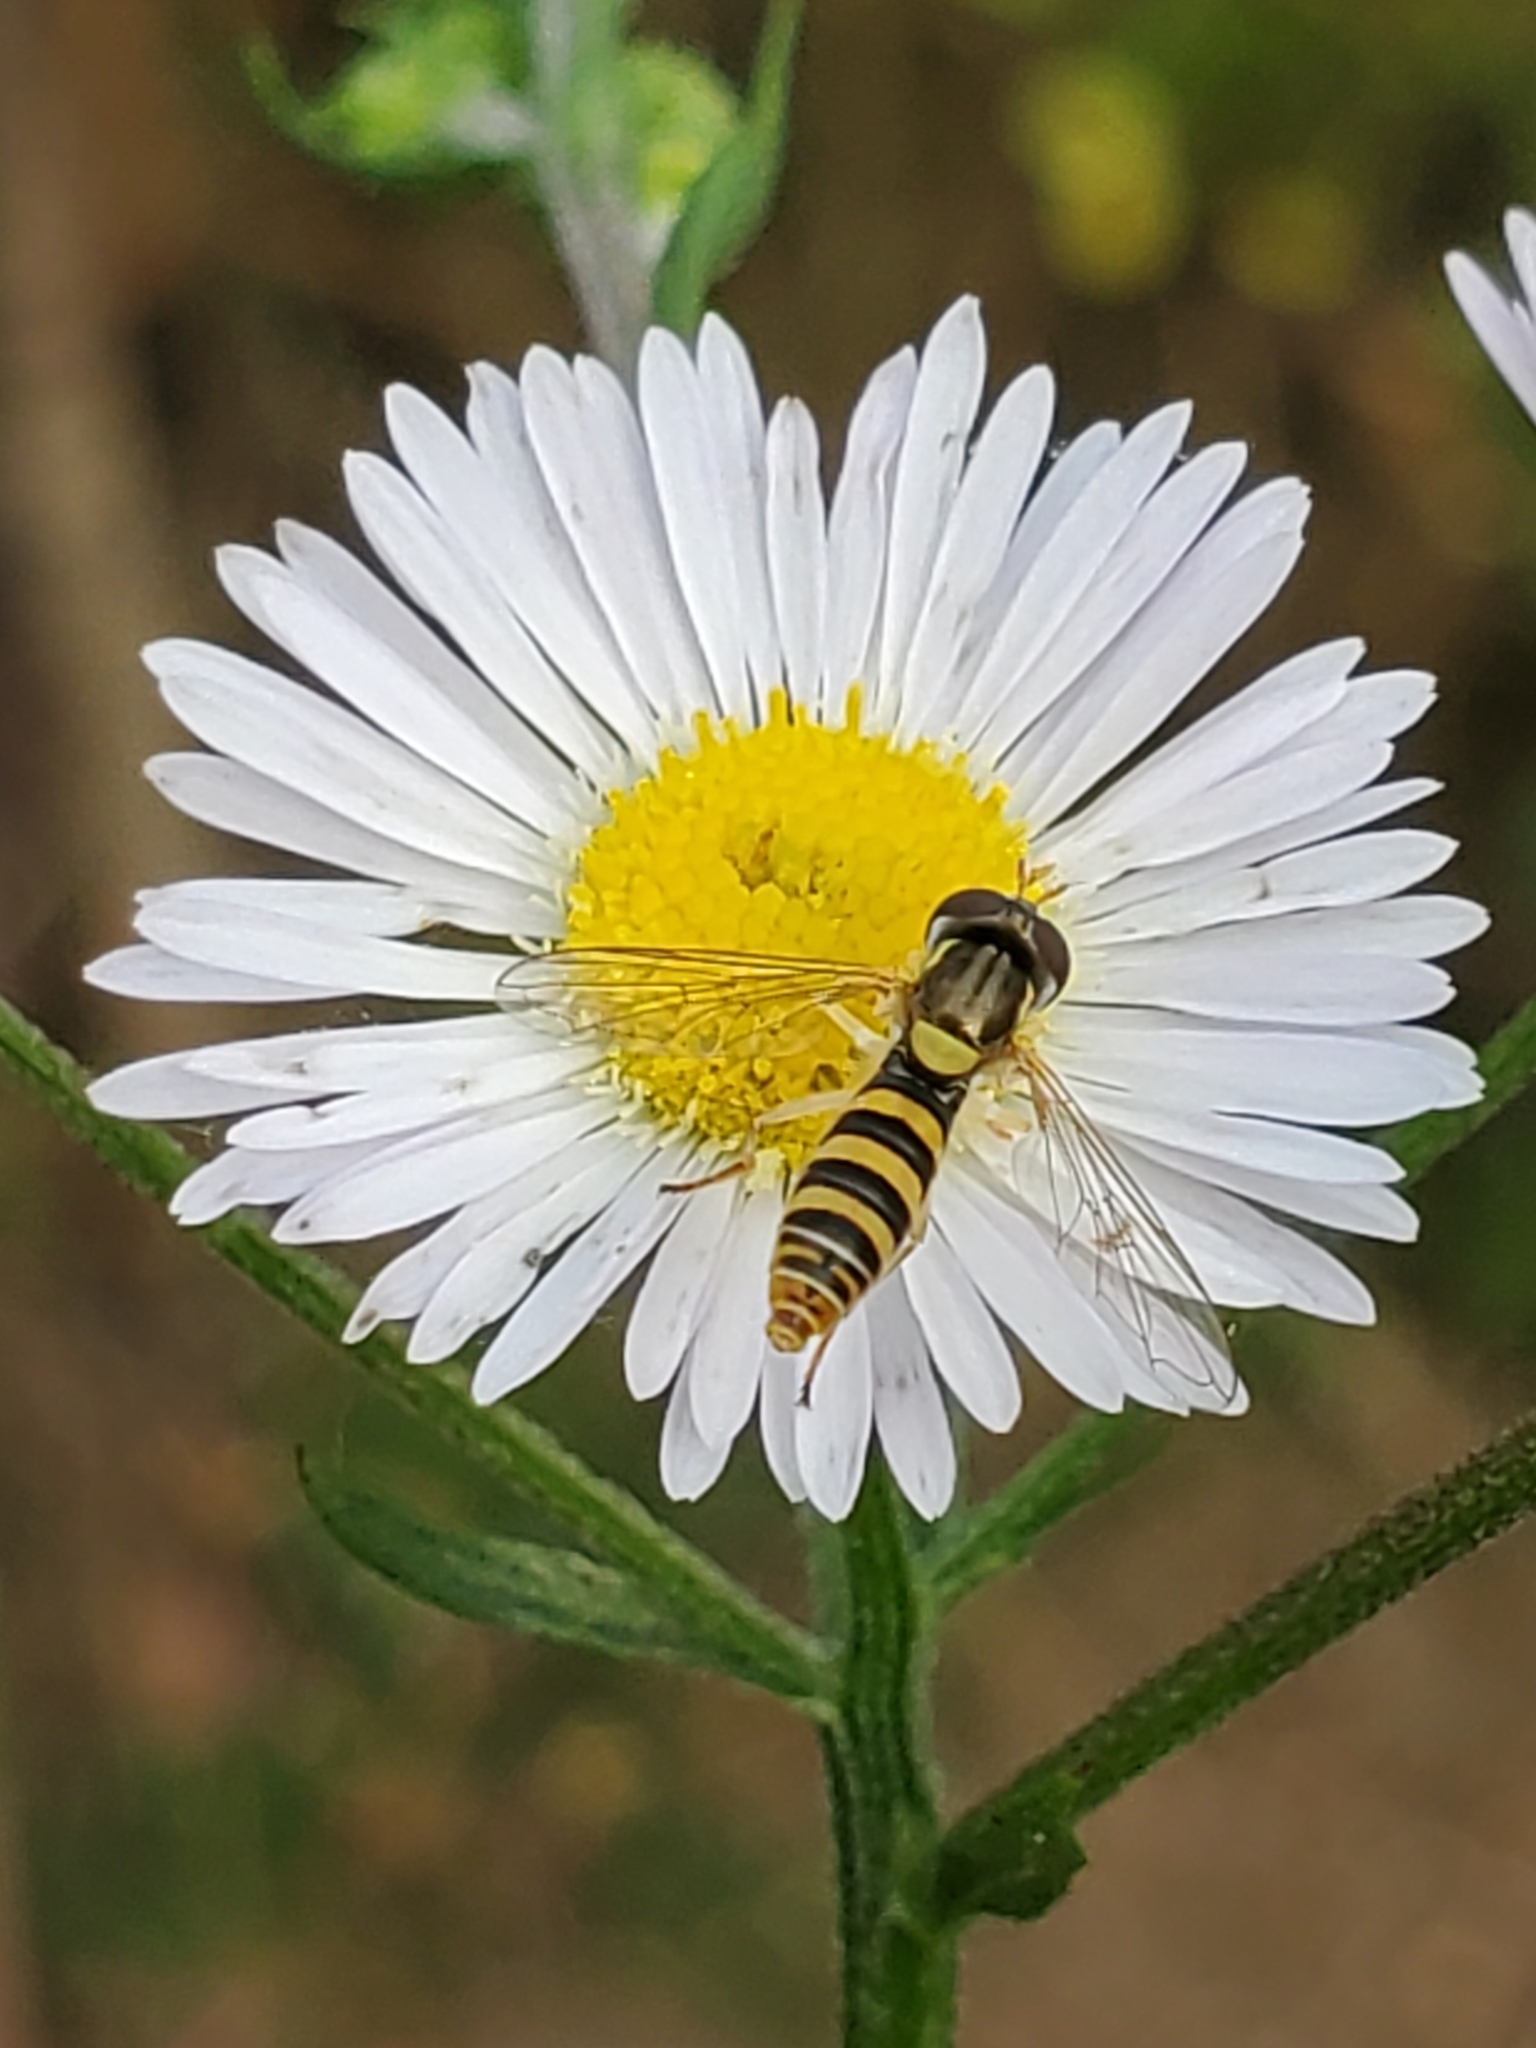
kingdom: Animalia
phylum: Arthropoda
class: Insecta
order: Diptera
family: Syrphidae
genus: Sphaerophoria
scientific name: Sphaerophoria contigua
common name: Tufted globetail
